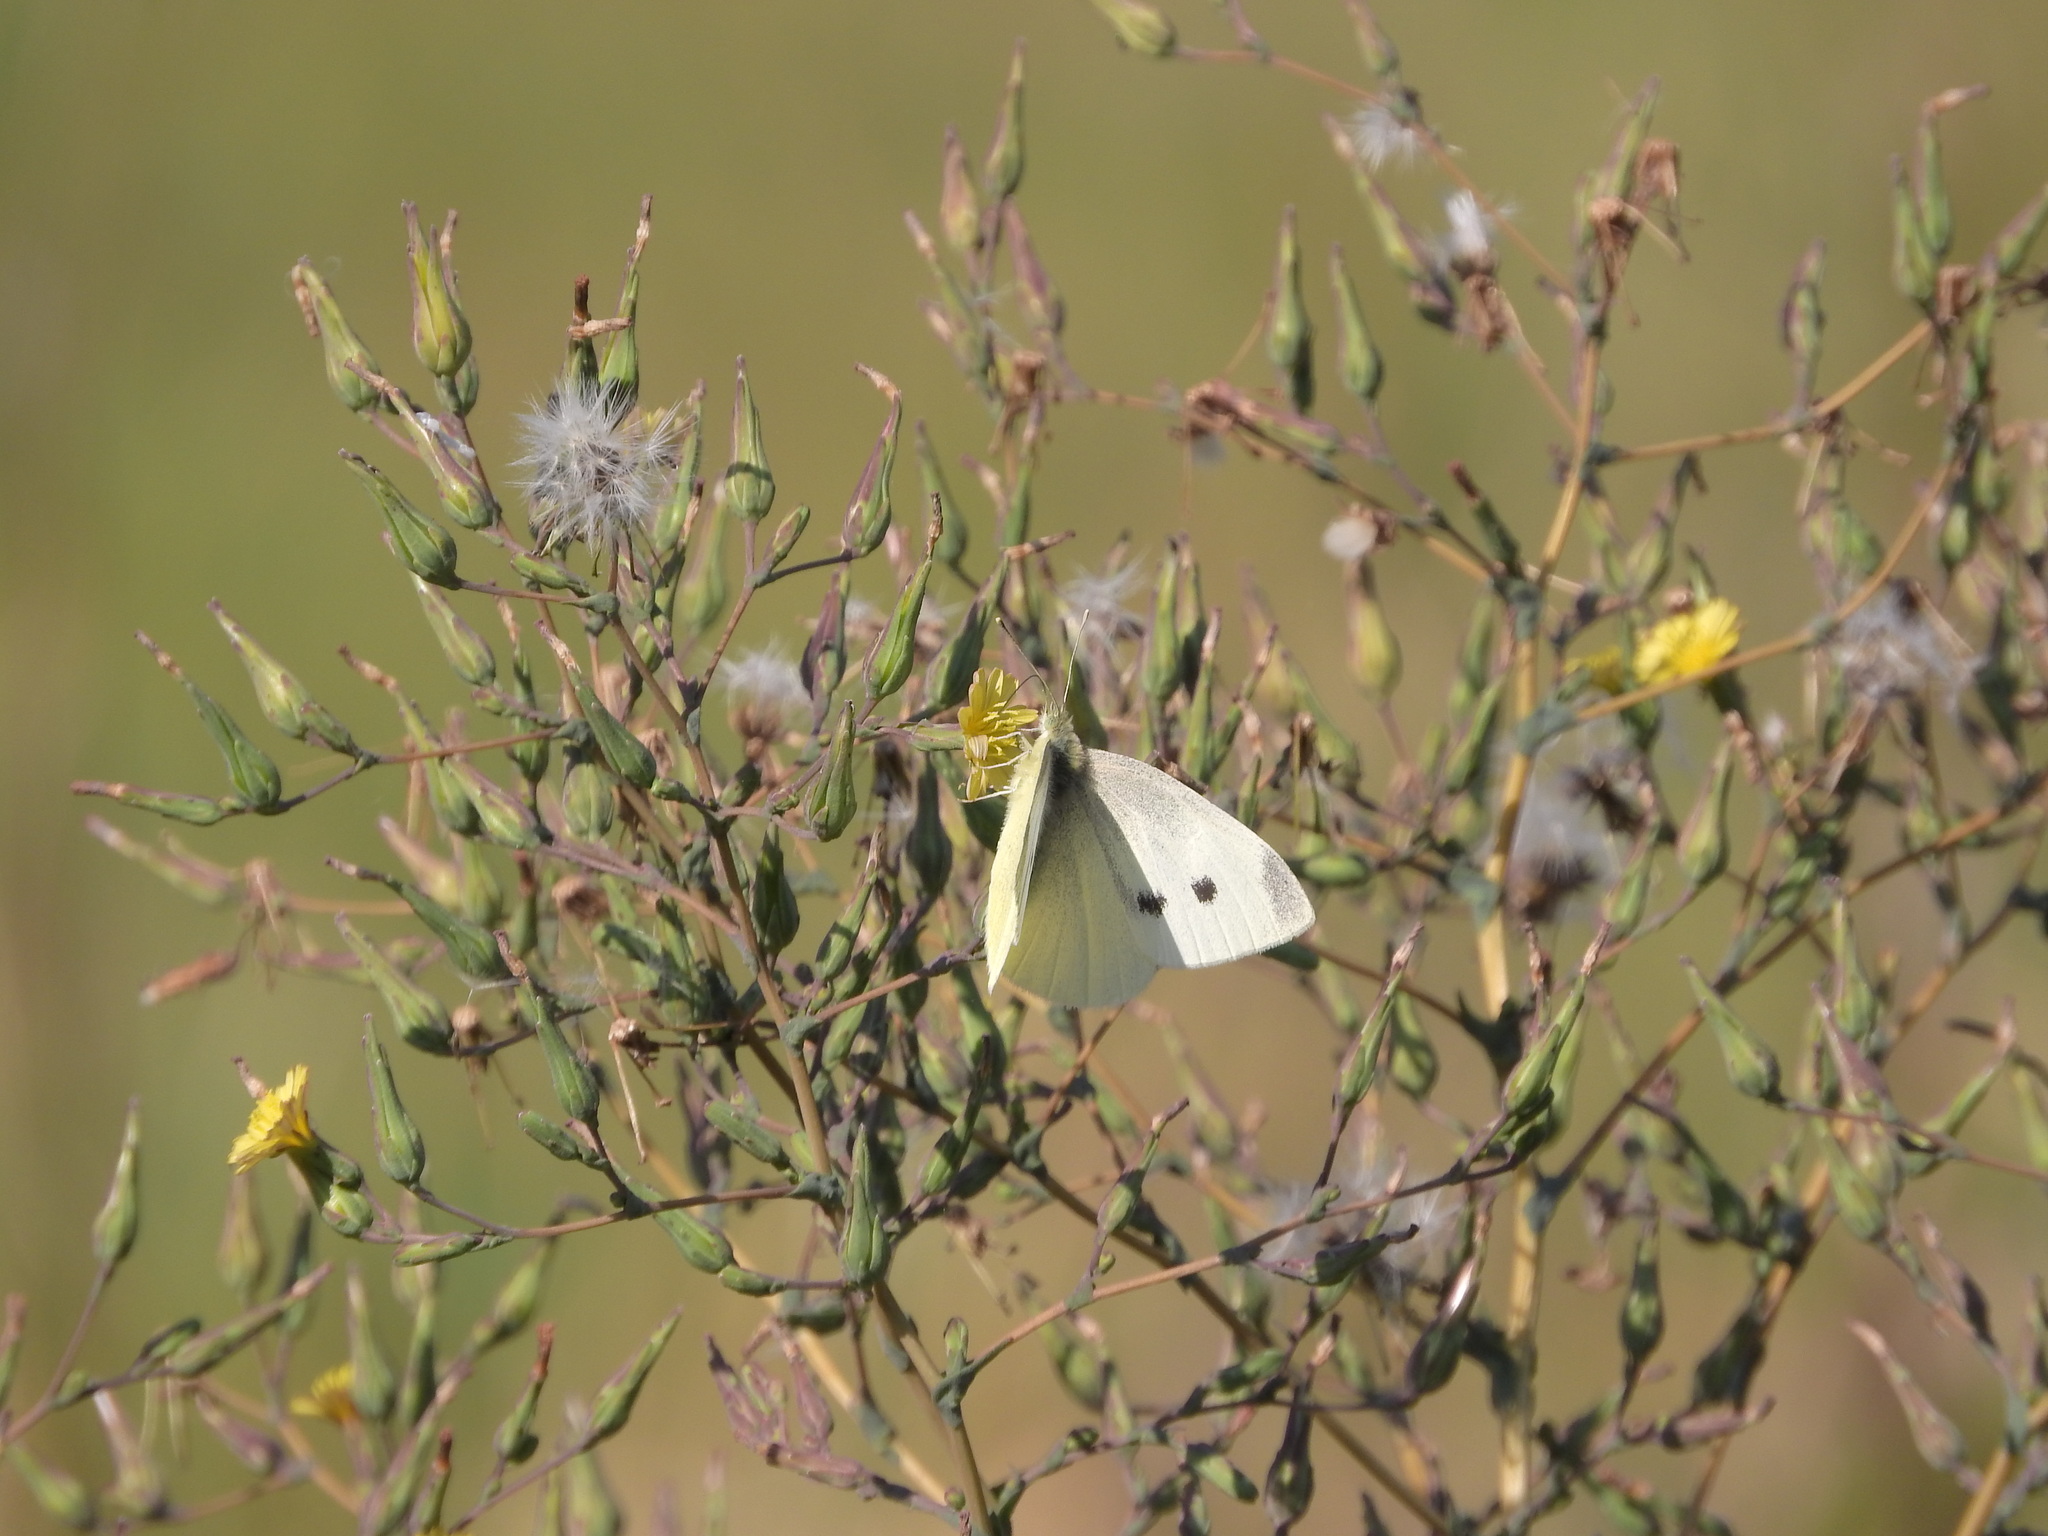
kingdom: Animalia
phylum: Arthropoda
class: Insecta
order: Lepidoptera
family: Pieridae
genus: Pieris
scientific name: Pieris rapae
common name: Small white
